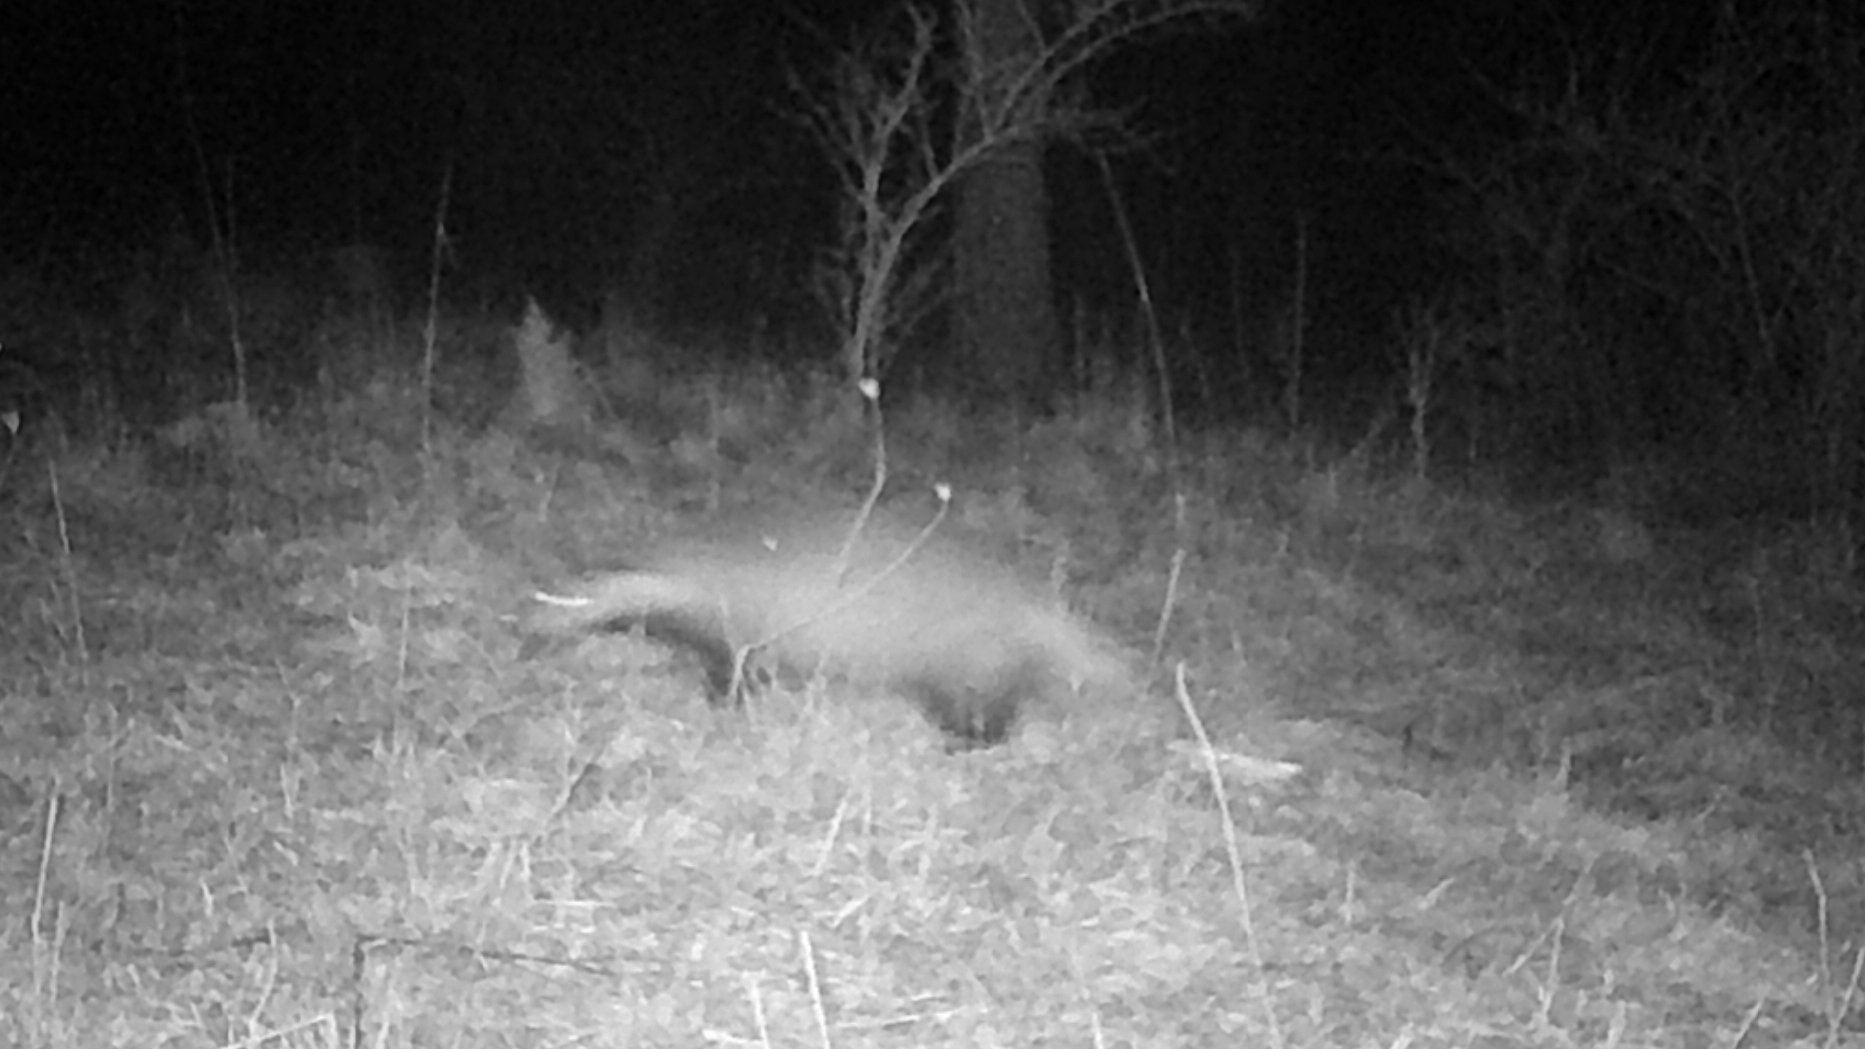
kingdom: Animalia
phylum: Chordata
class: Mammalia
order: Carnivora
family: Mustelidae
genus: Meles
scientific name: Meles meles
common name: Eurasian badger
